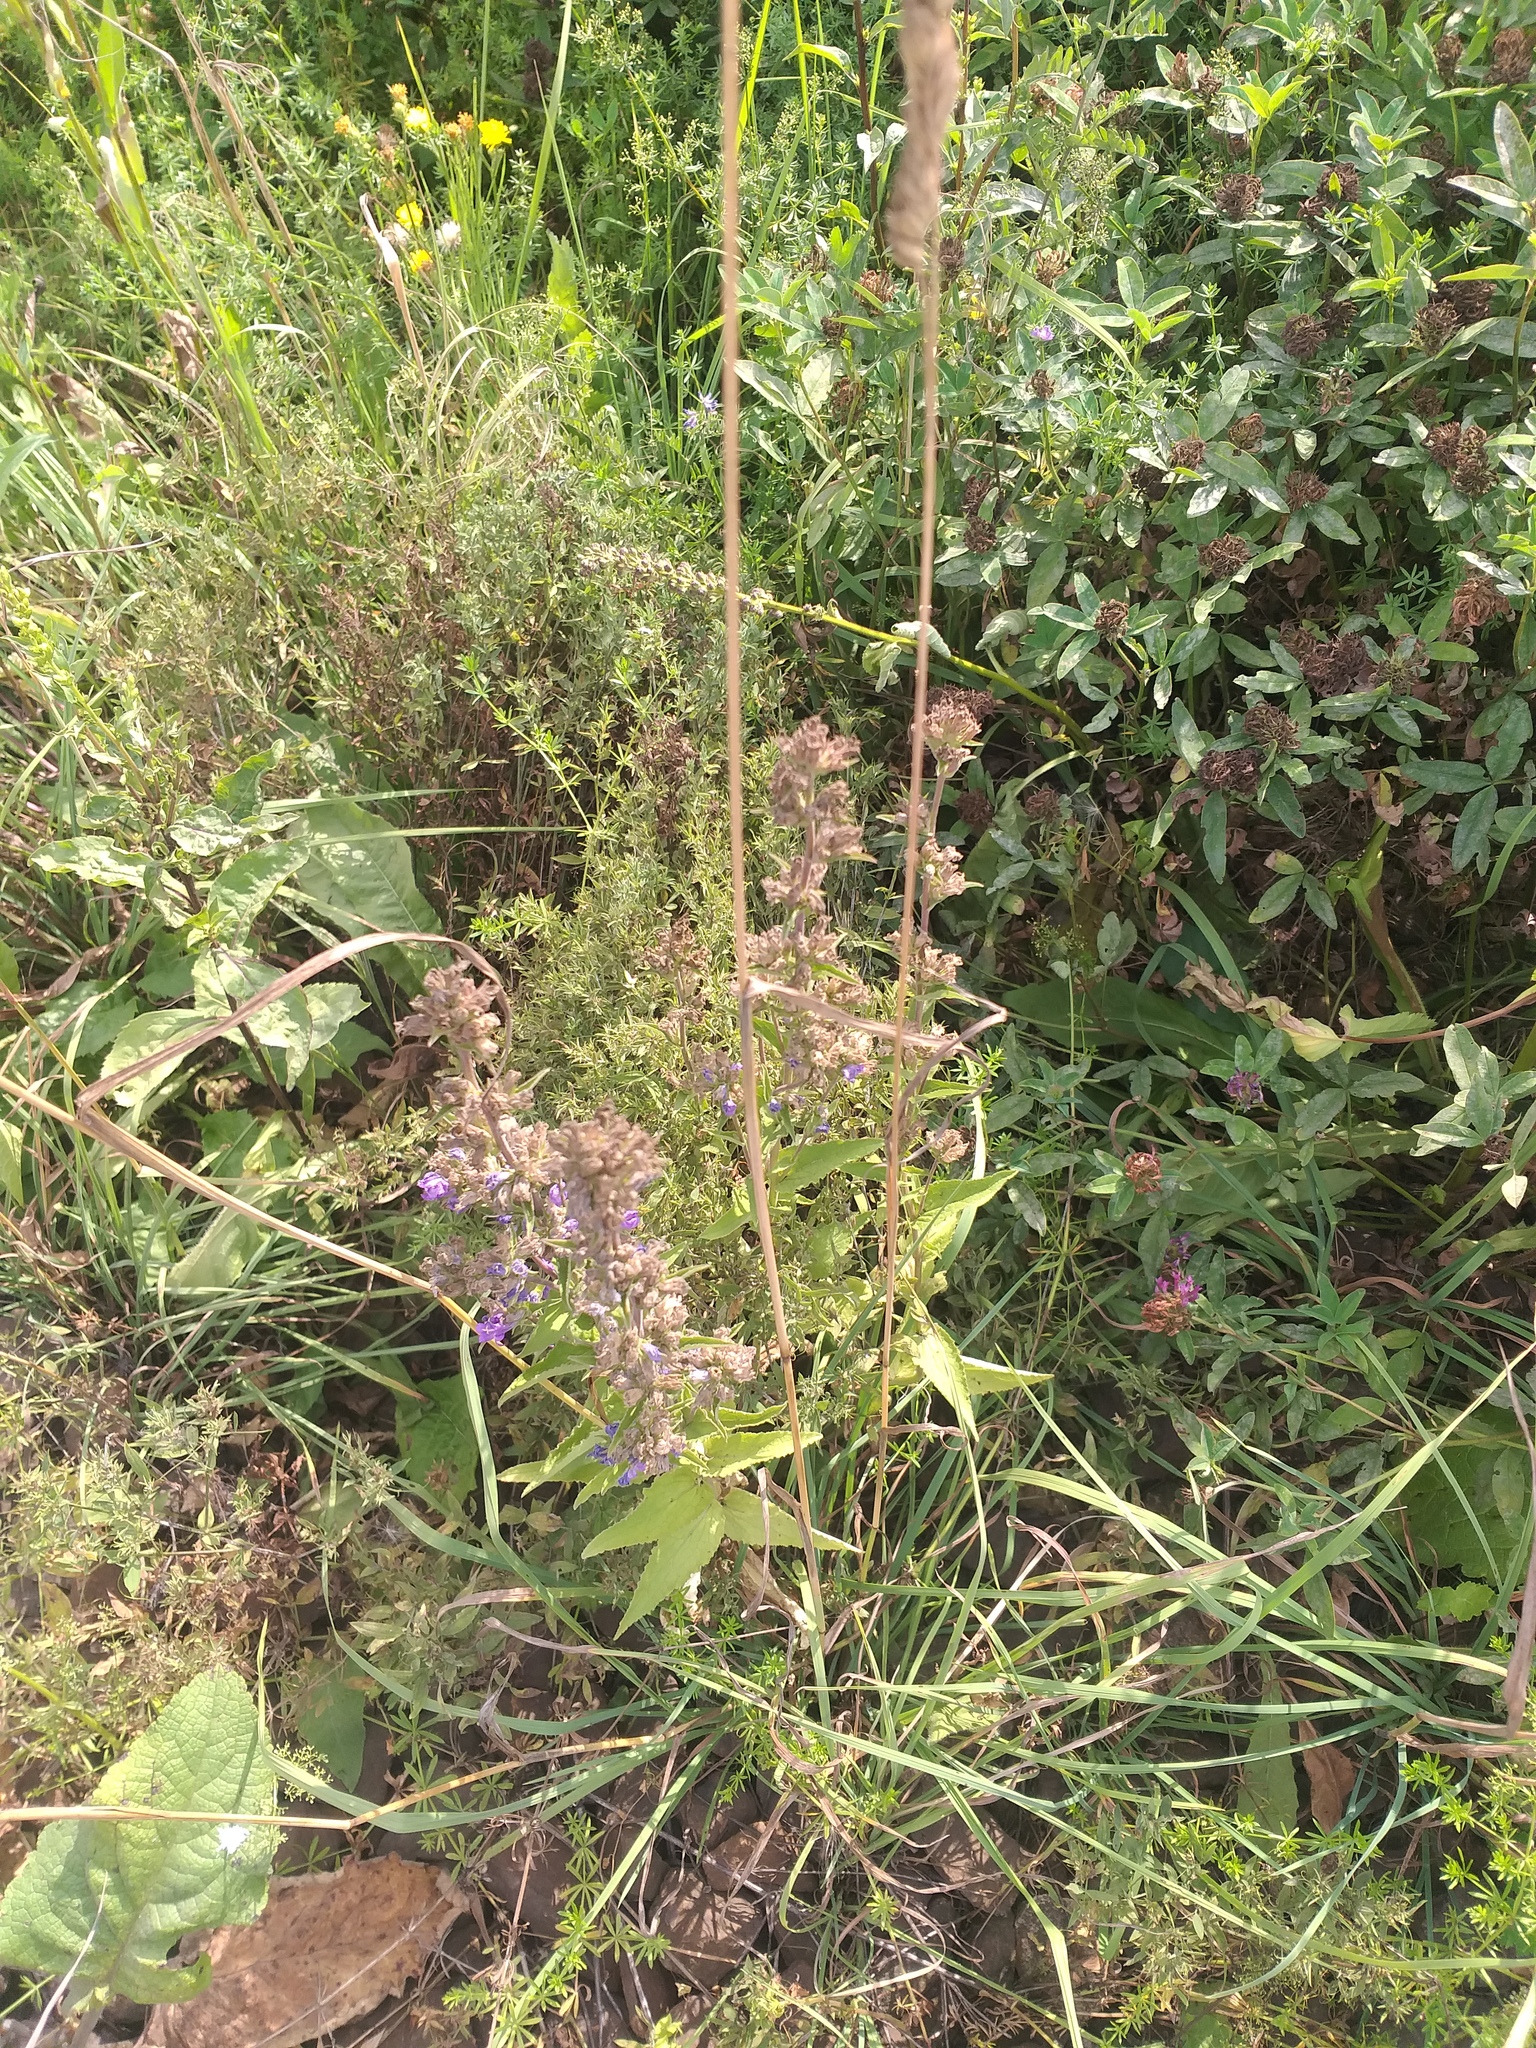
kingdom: Plantae
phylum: Tracheophyta
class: Magnoliopsida
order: Asterales
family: Campanulaceae
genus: Campanula
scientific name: Campanula glomerata
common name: Clustered bellflower
